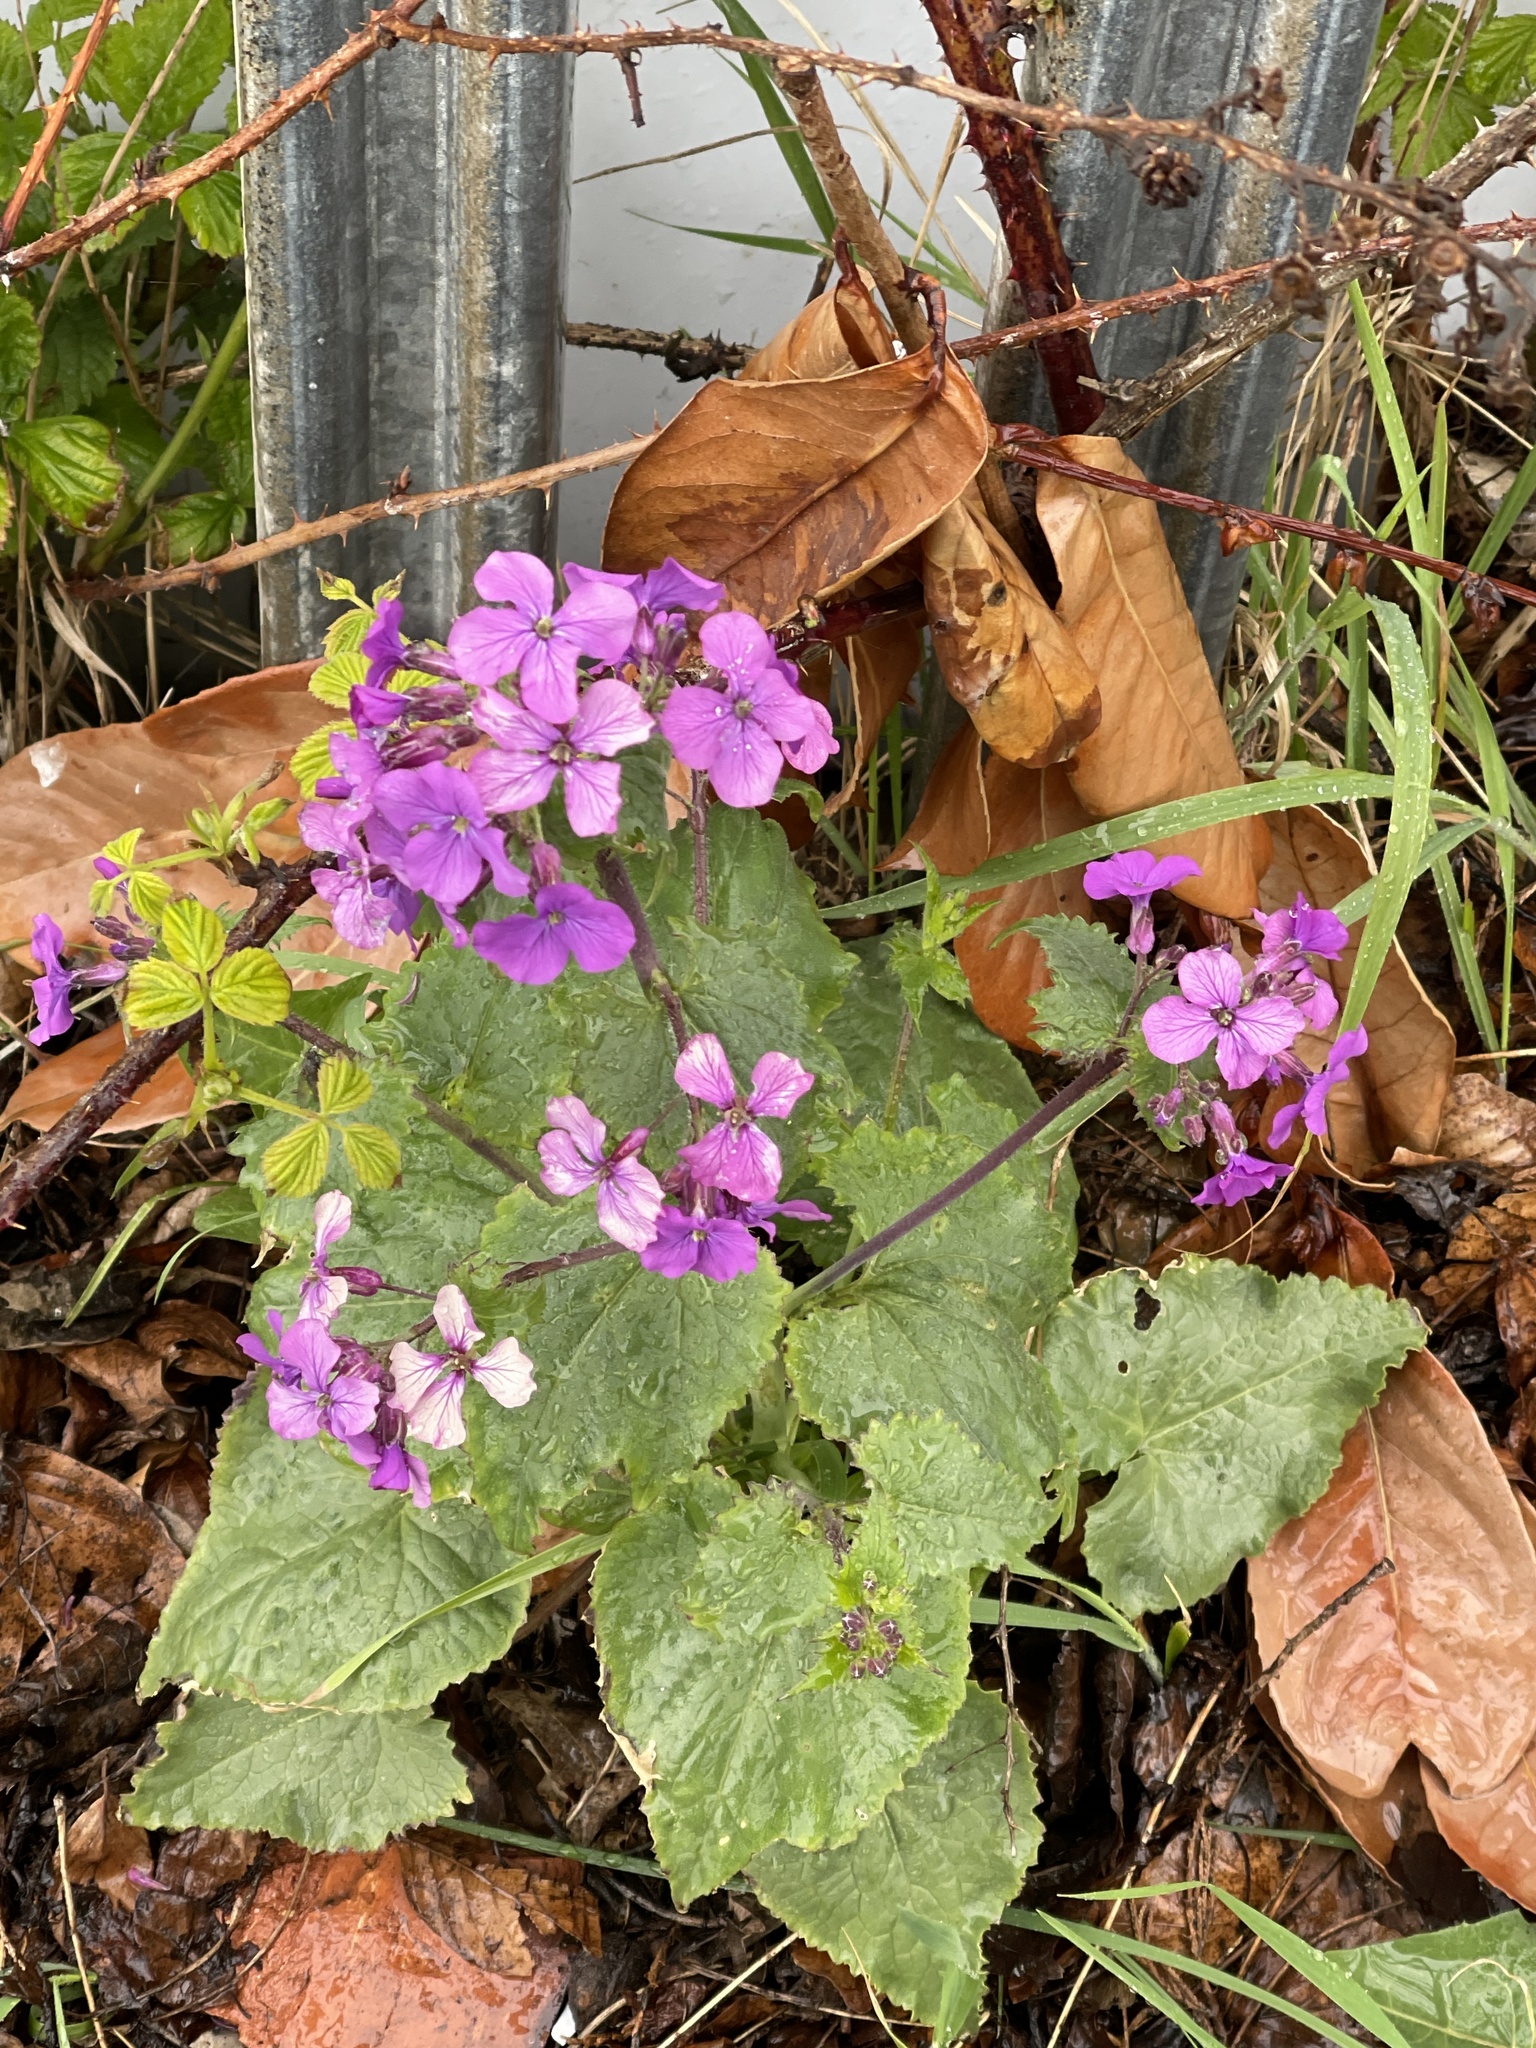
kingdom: Plantae
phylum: Tracheophyta
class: Magnoliopsida
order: Brassicales
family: Brassicaceae
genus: Lunaria
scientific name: Lunaria annua
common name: Honesty
